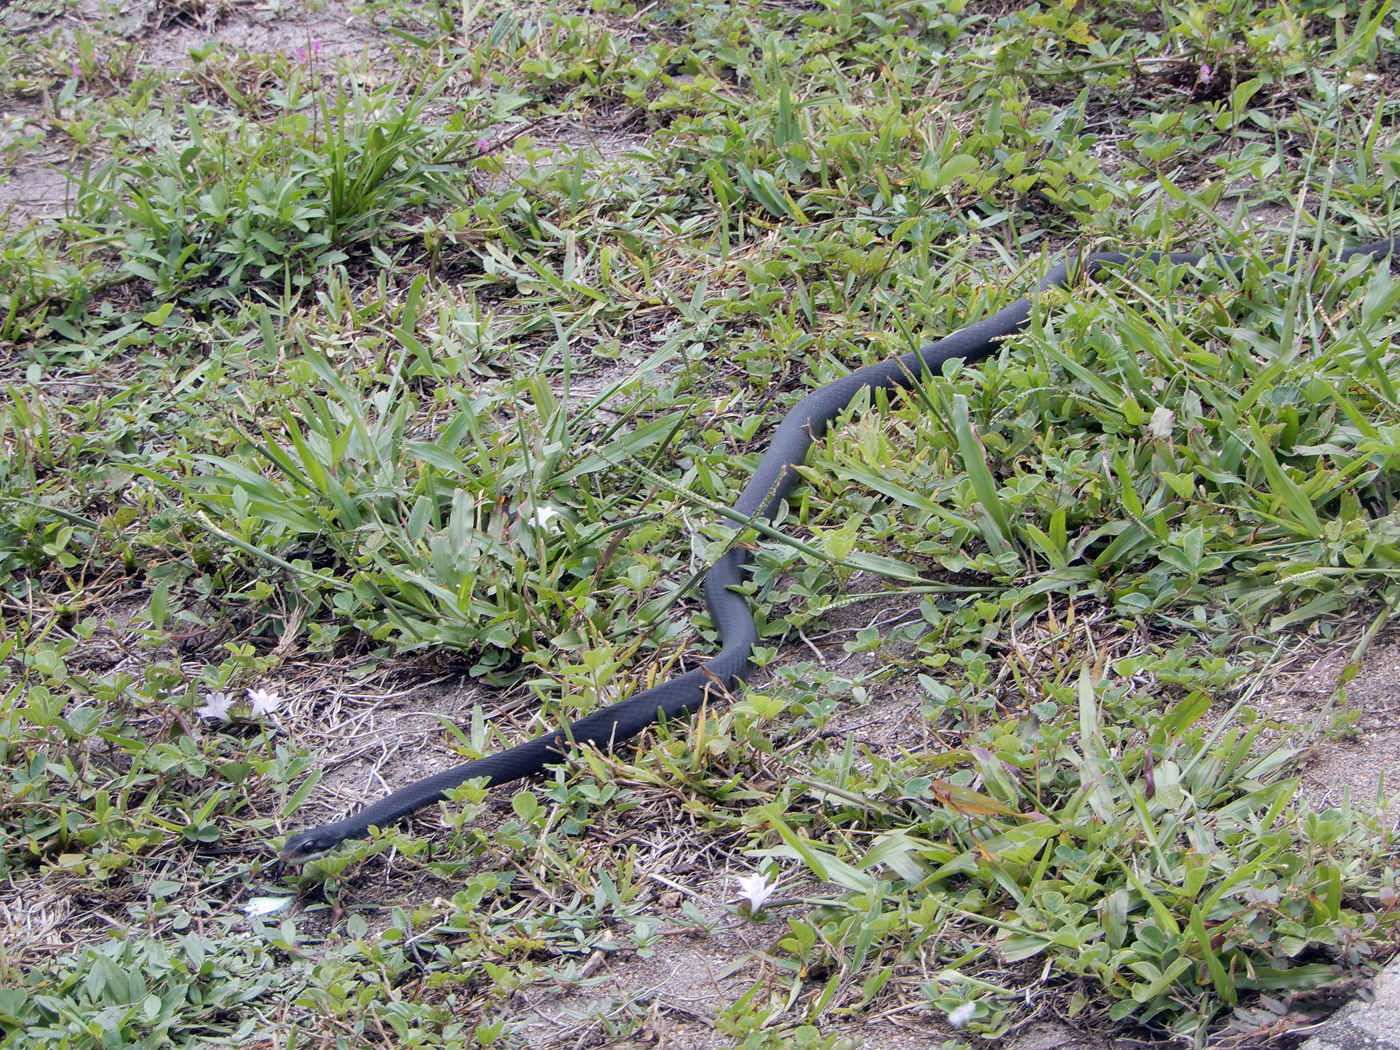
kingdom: Animalia
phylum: Chordata
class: Squamata
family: Colubridae
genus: Coluber
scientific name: Coluber constrictor
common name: Eastern racer
